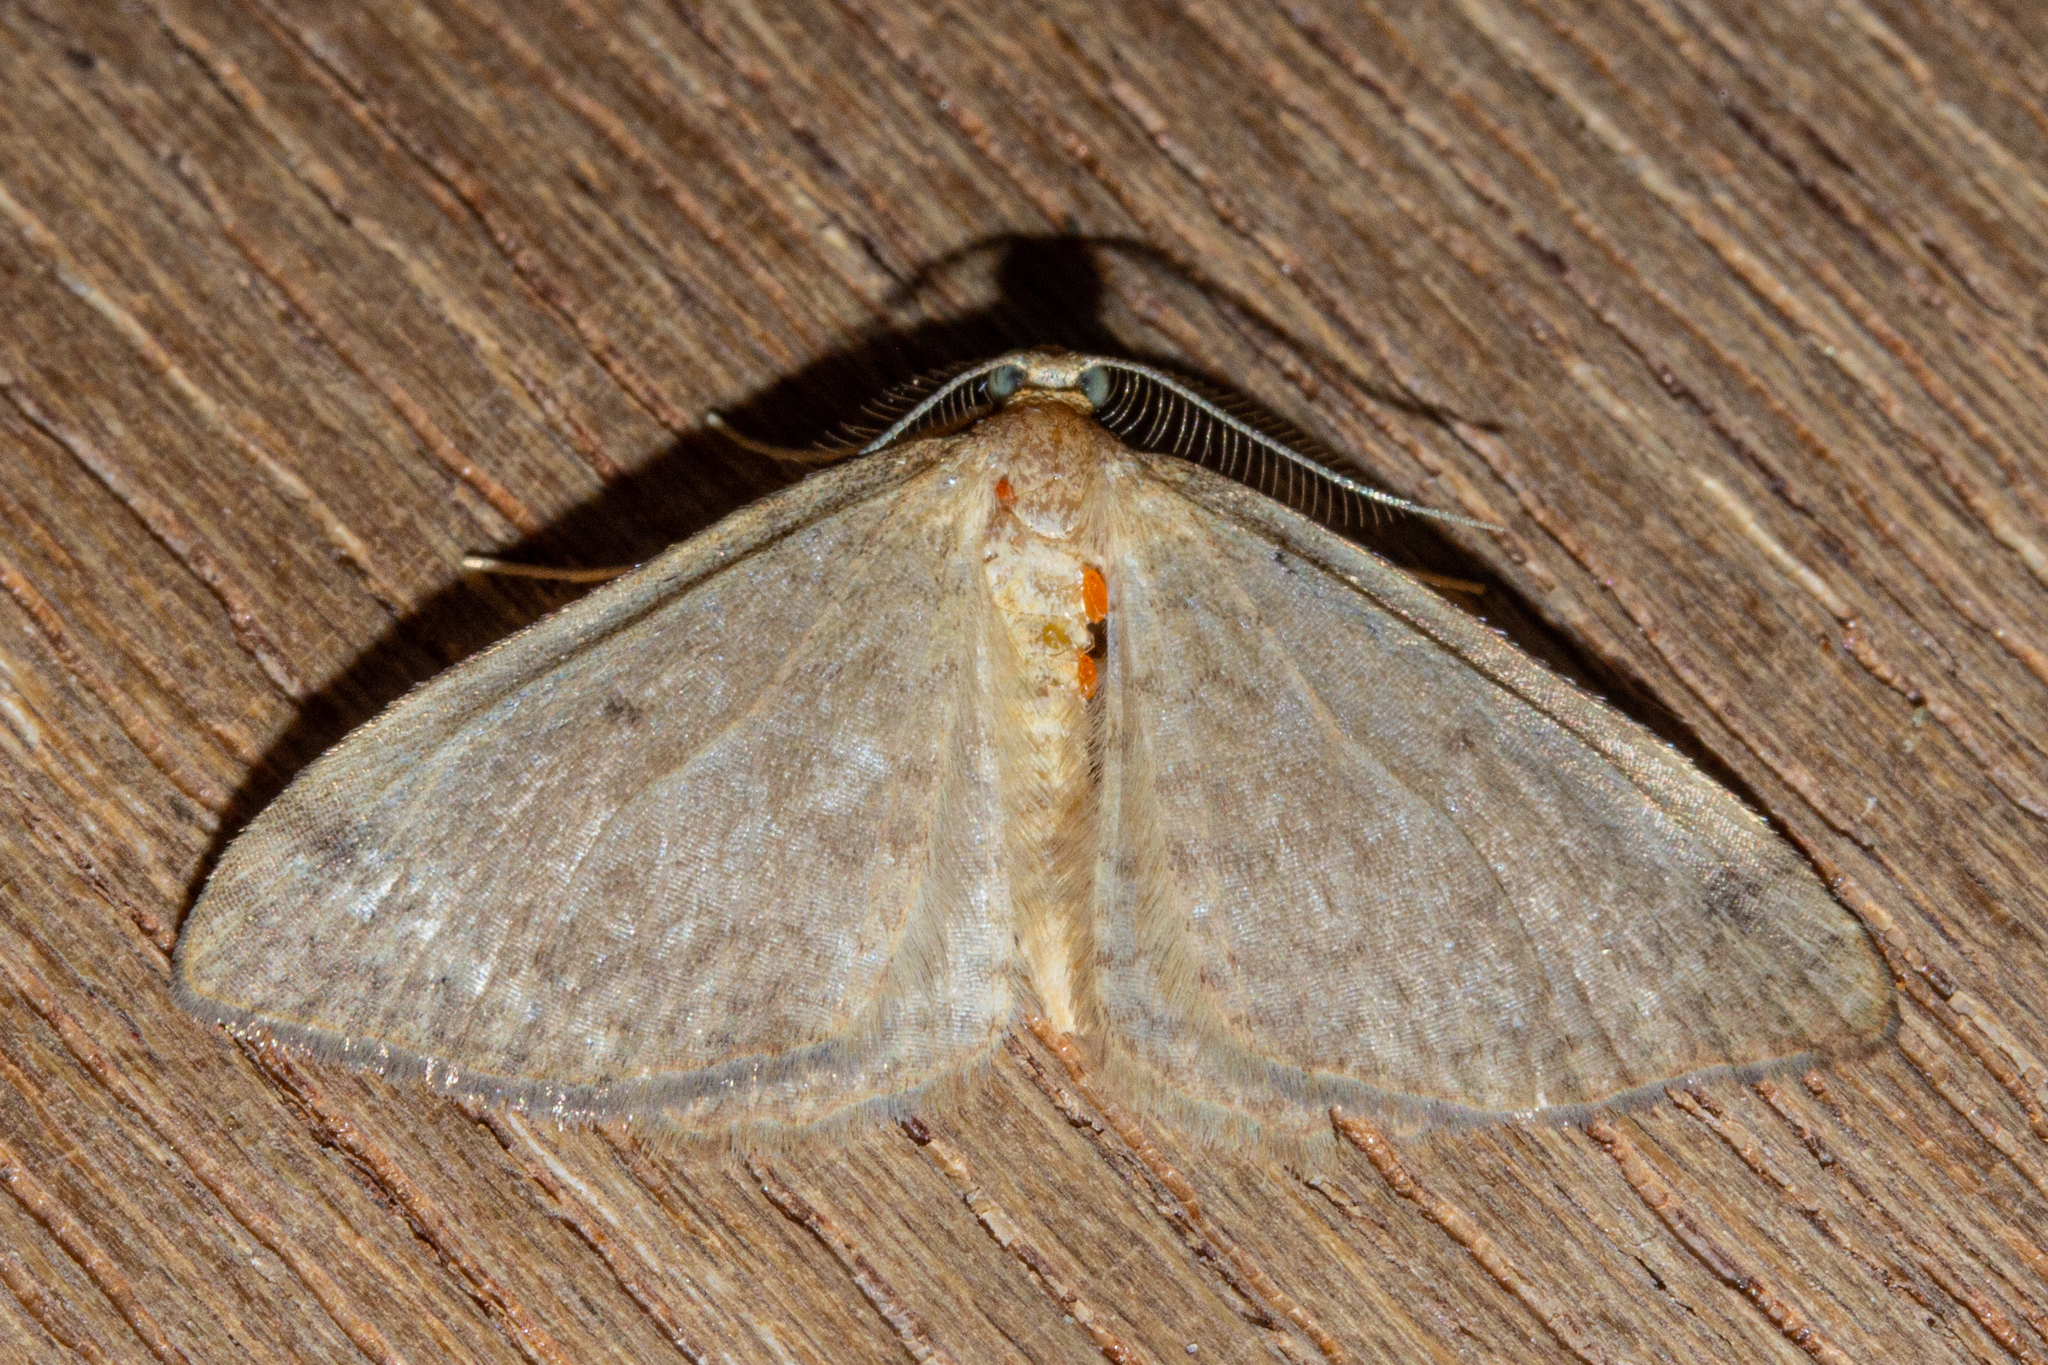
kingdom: Animalia
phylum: Arthropoda
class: Insecta
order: Lepidoptera
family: Geometridae
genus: Epiphryne
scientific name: Epiphryne undosata
